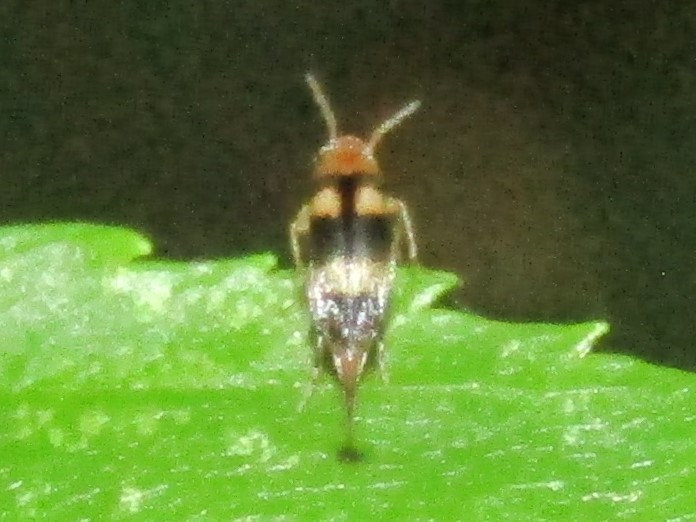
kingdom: Animalia
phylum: Arthropoda
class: Insecta
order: Coleoptera
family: Mordellidae
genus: Mordellistena
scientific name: Mordellistena trifasciata
